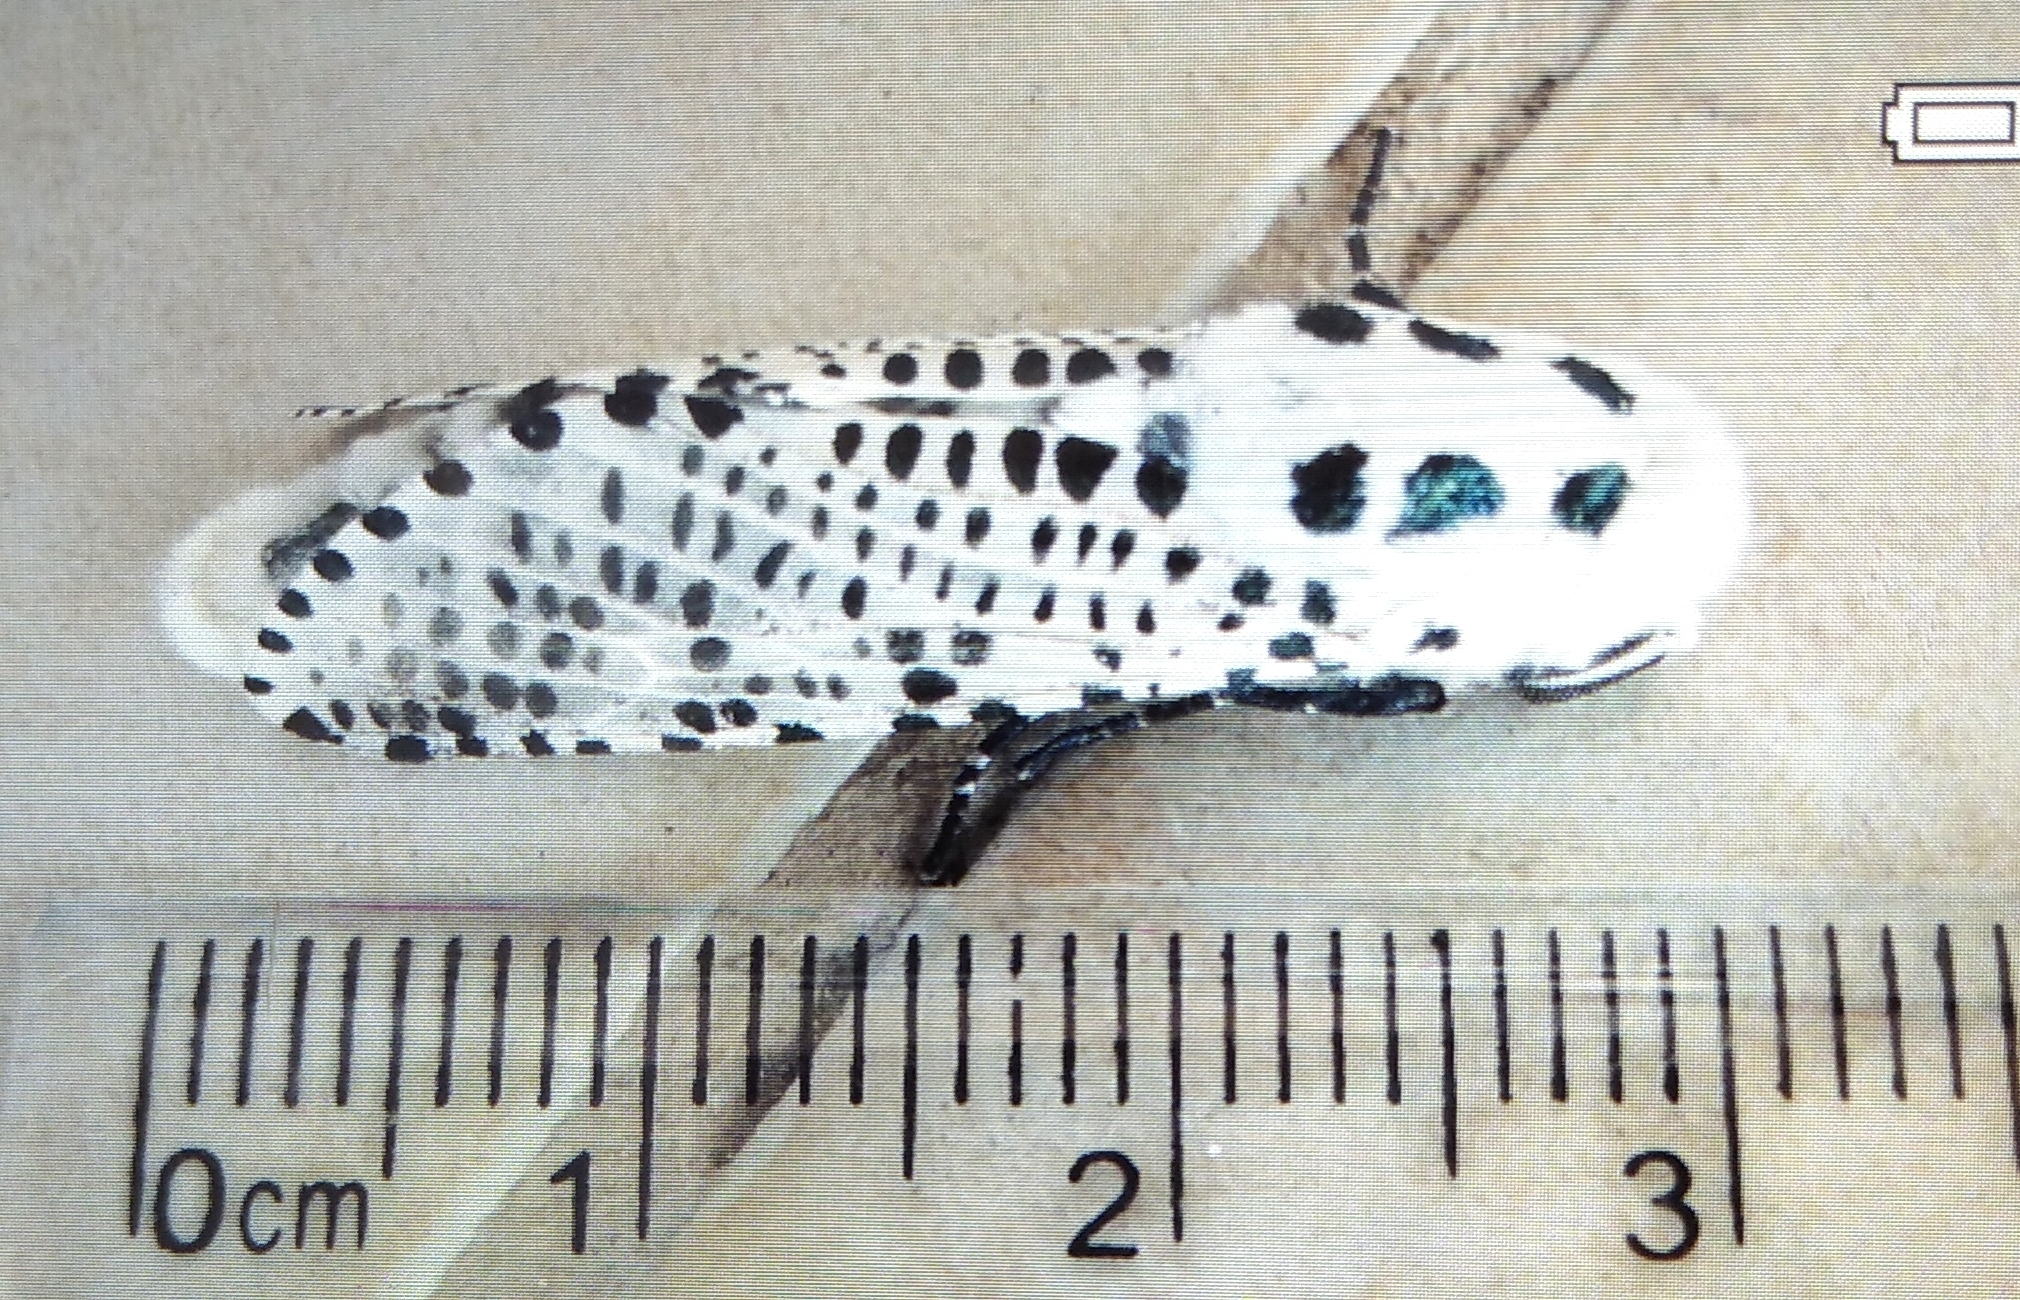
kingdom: Animalia
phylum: Arthropoda
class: Insecta
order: Lepidoptera
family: Cossidae
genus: Zeuzera
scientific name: Zeuzera pyrina
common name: Leopard moth
